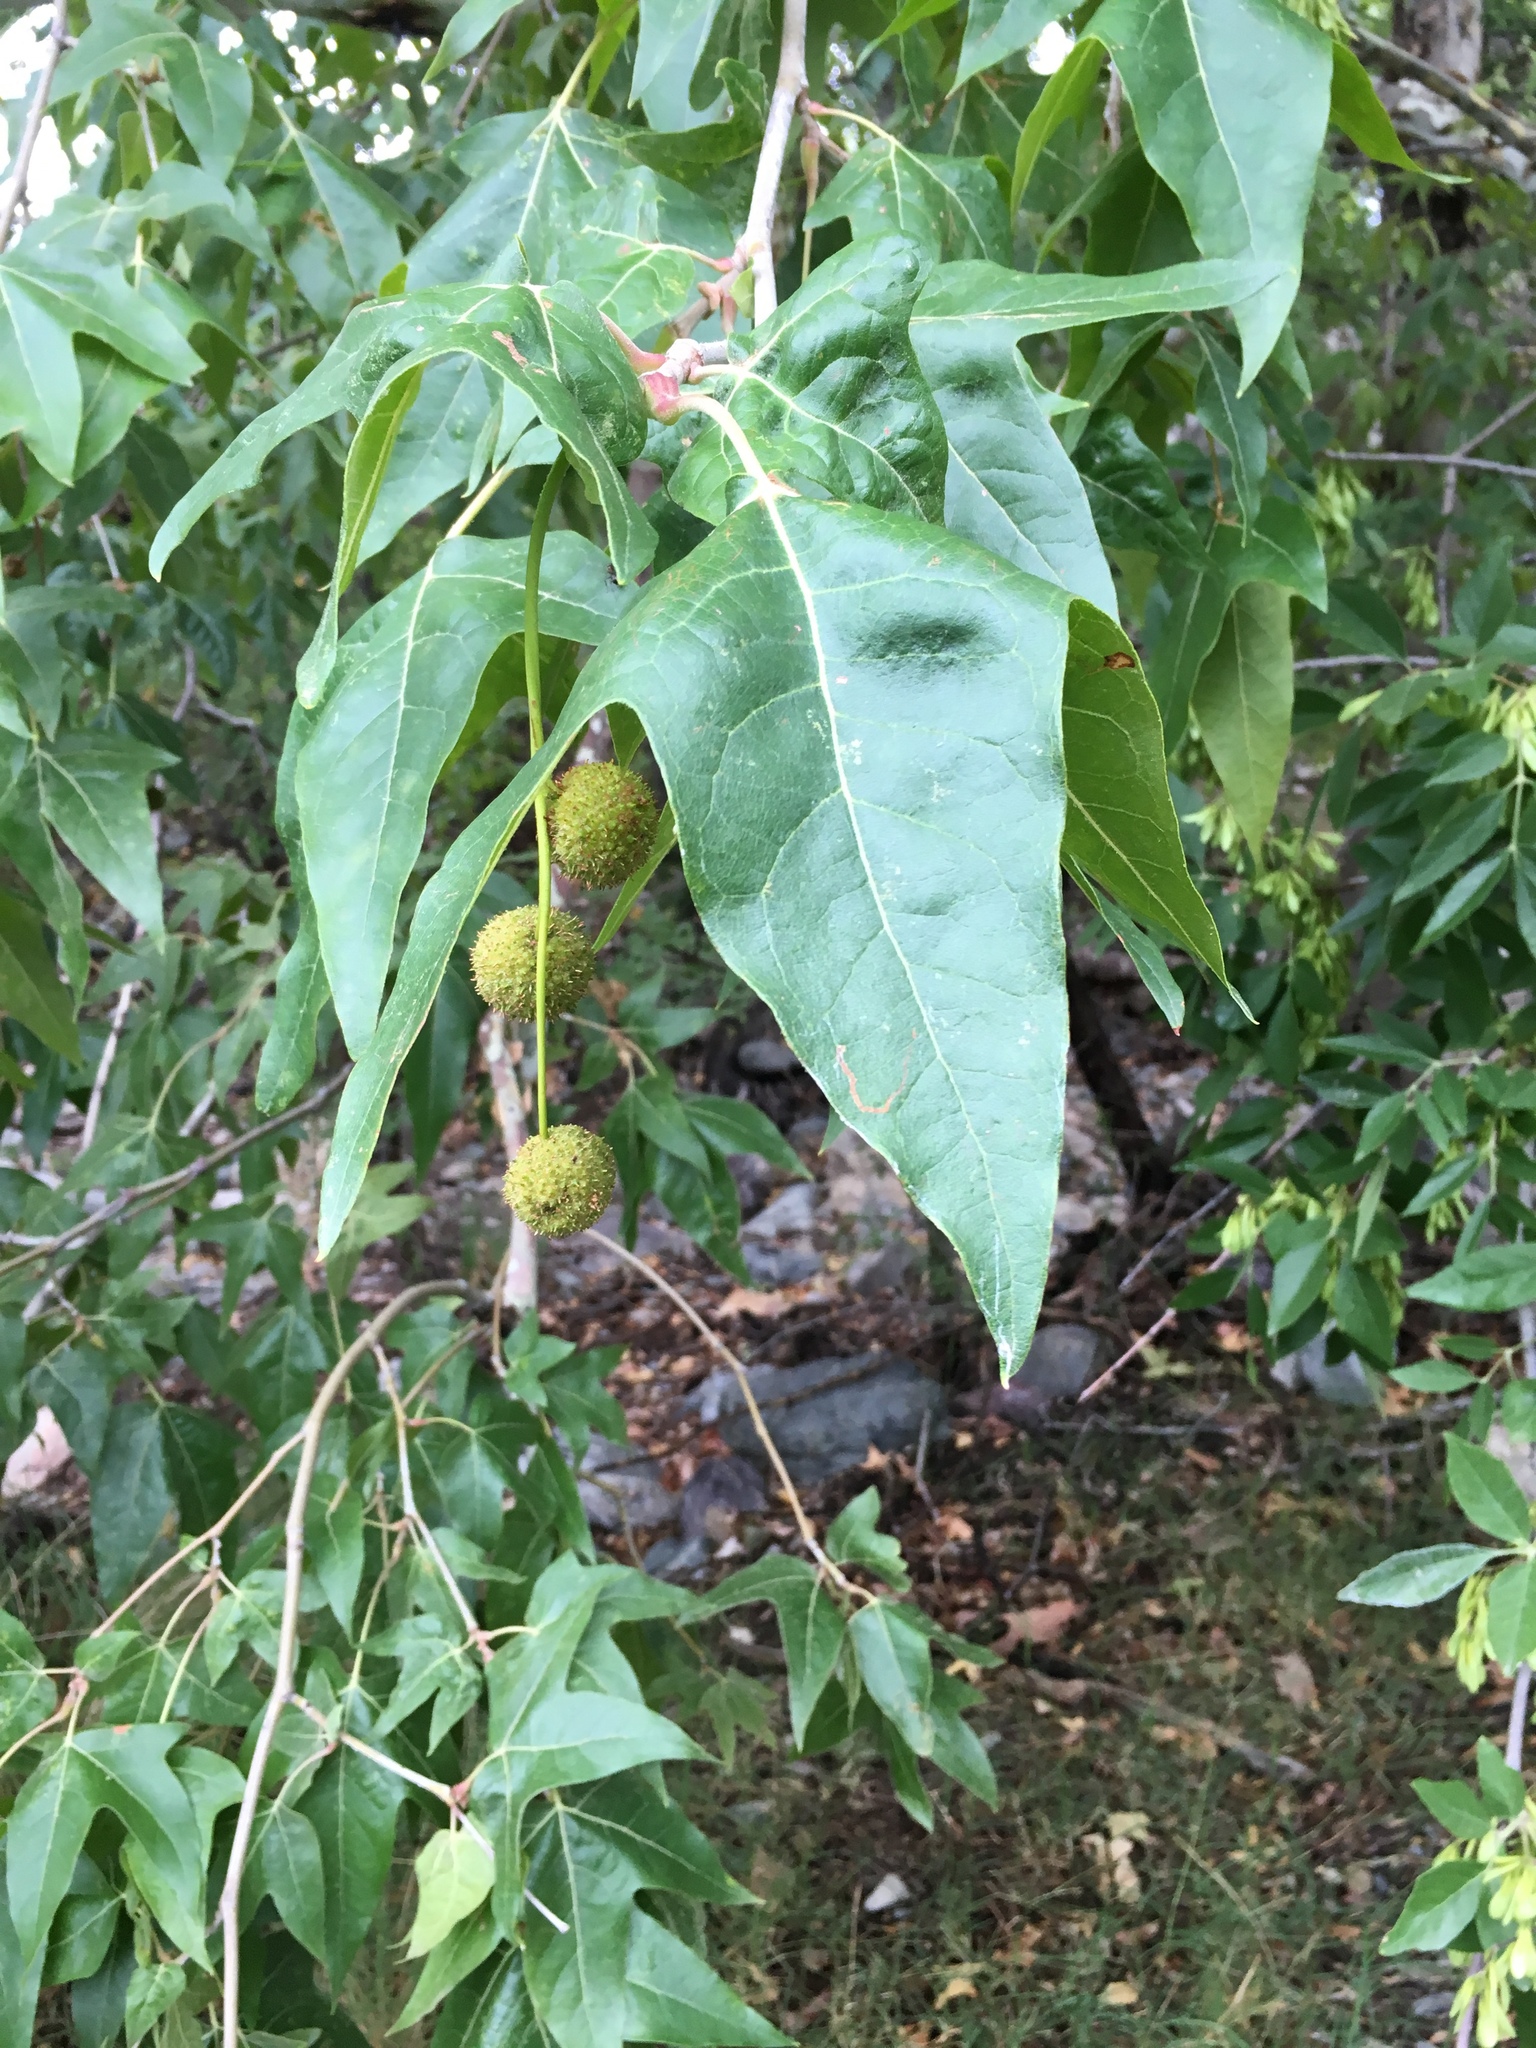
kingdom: Plantae
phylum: Tracheophyta
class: Magnoliopsida
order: Proteales
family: Platanaceae
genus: Platanus
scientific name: Platanus wrightii
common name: Arizona sycamore
